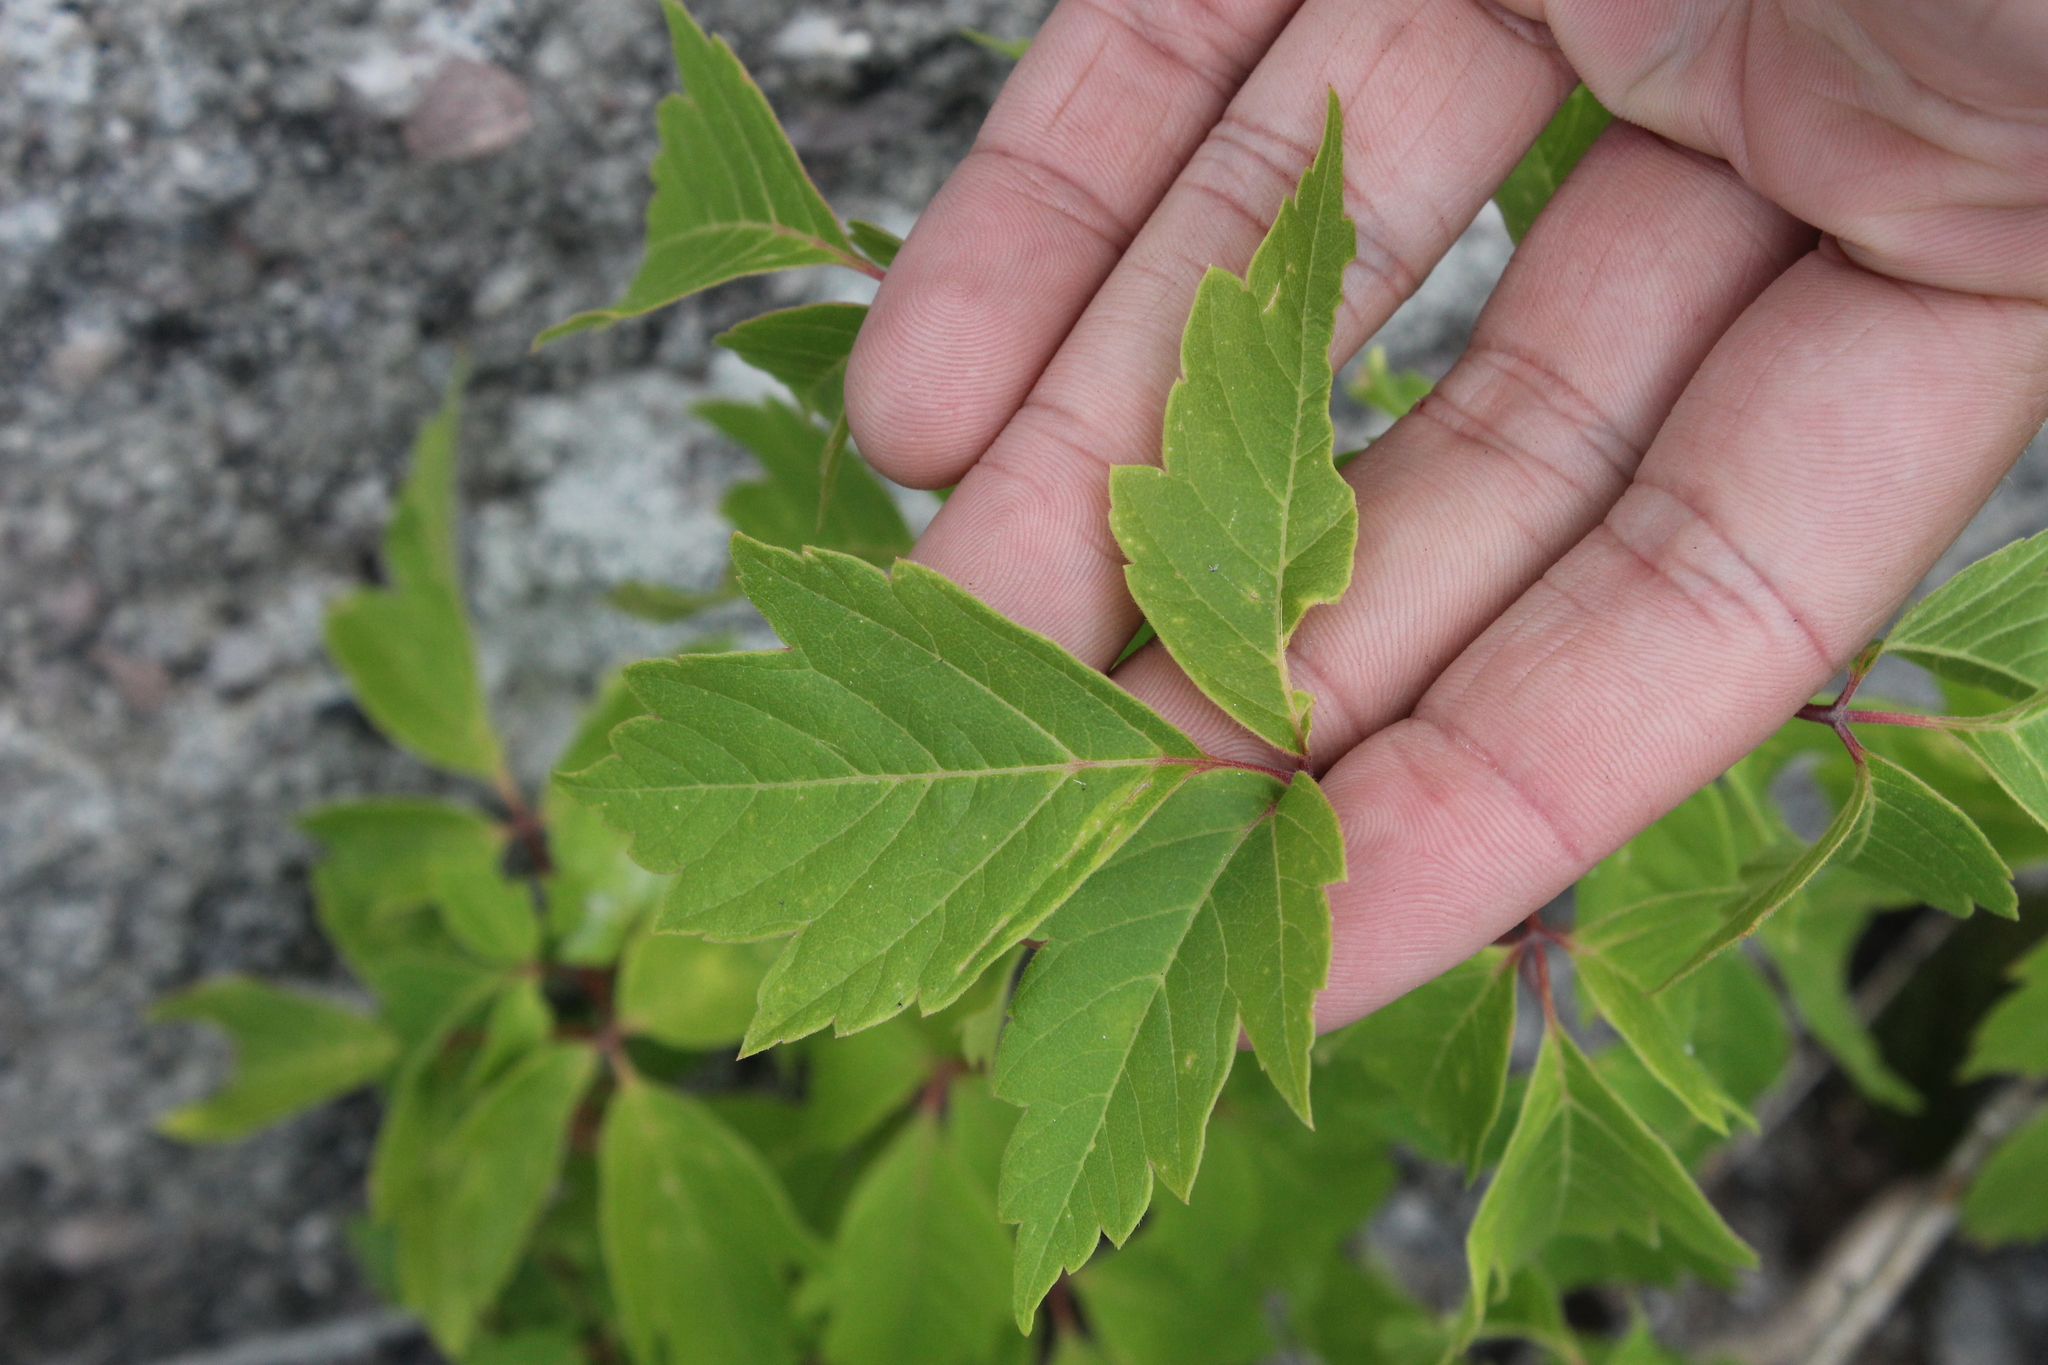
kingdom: Plantae
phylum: Tracheophyta
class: Magnoliopsida
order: Sapindales
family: Sapindaceae
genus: Acer
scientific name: Acer negundo
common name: Ashleaf maple
